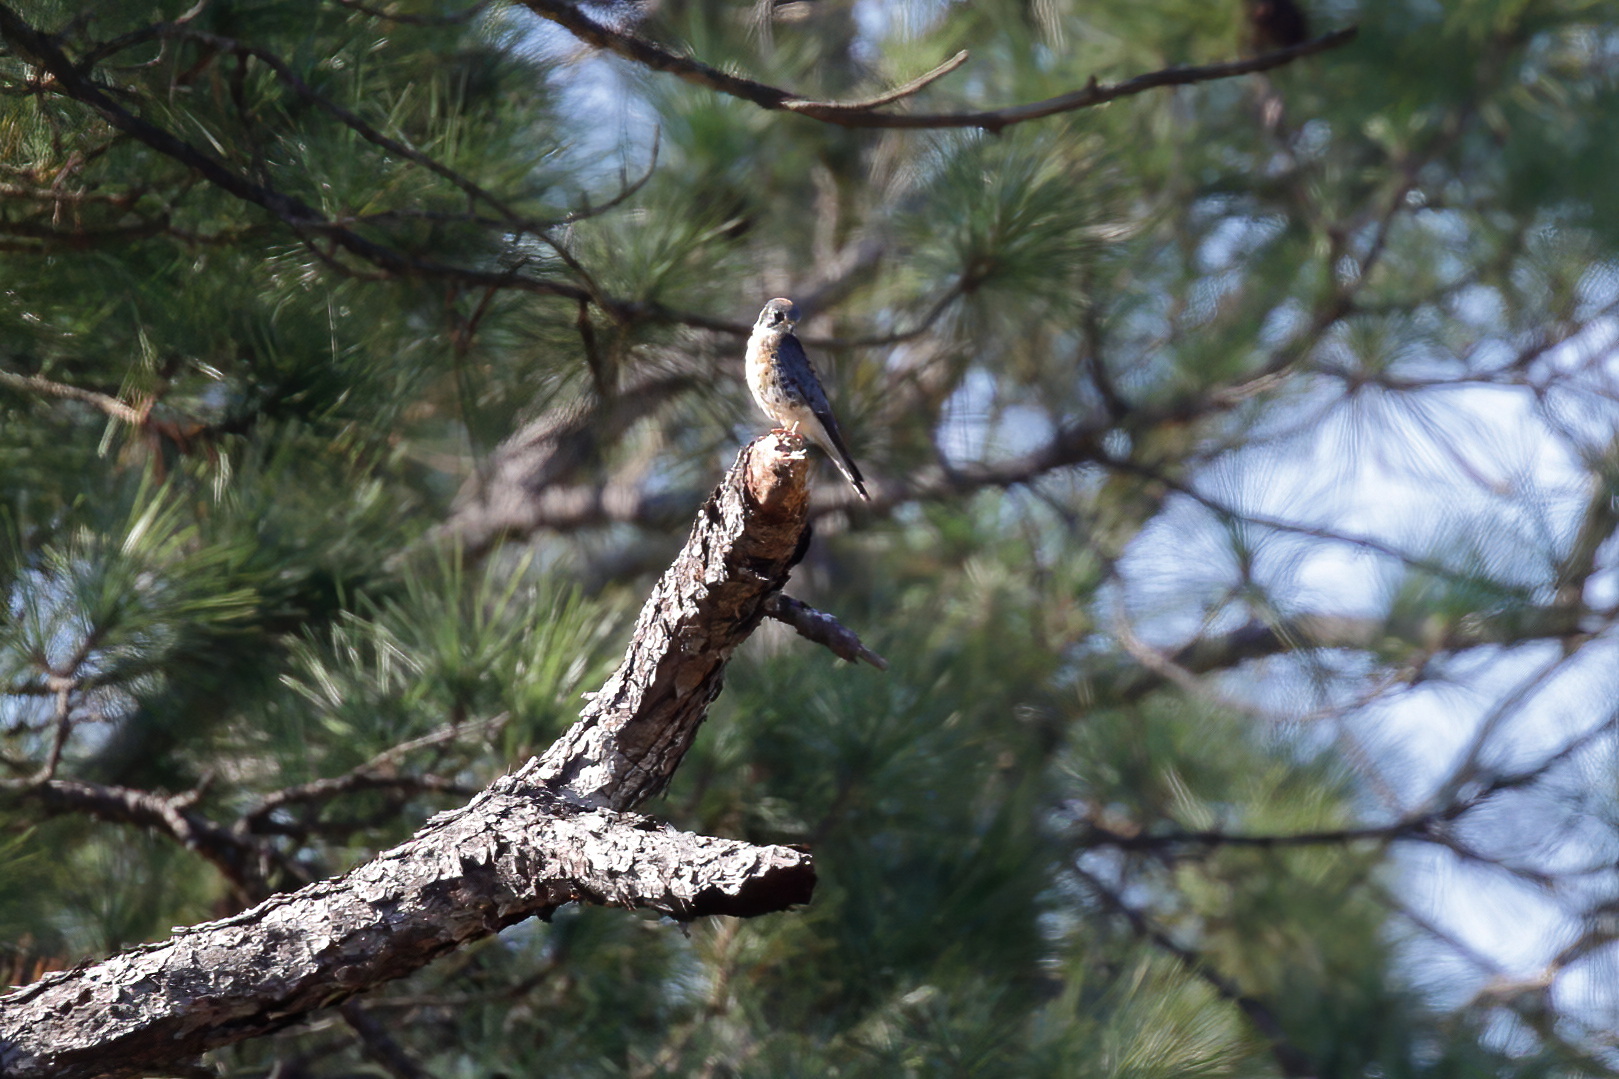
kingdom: Animalia
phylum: Chordata
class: Aves
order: Falconiformes
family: Falconidae
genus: Falco
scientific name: Falco sparverius
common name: American kestrel
